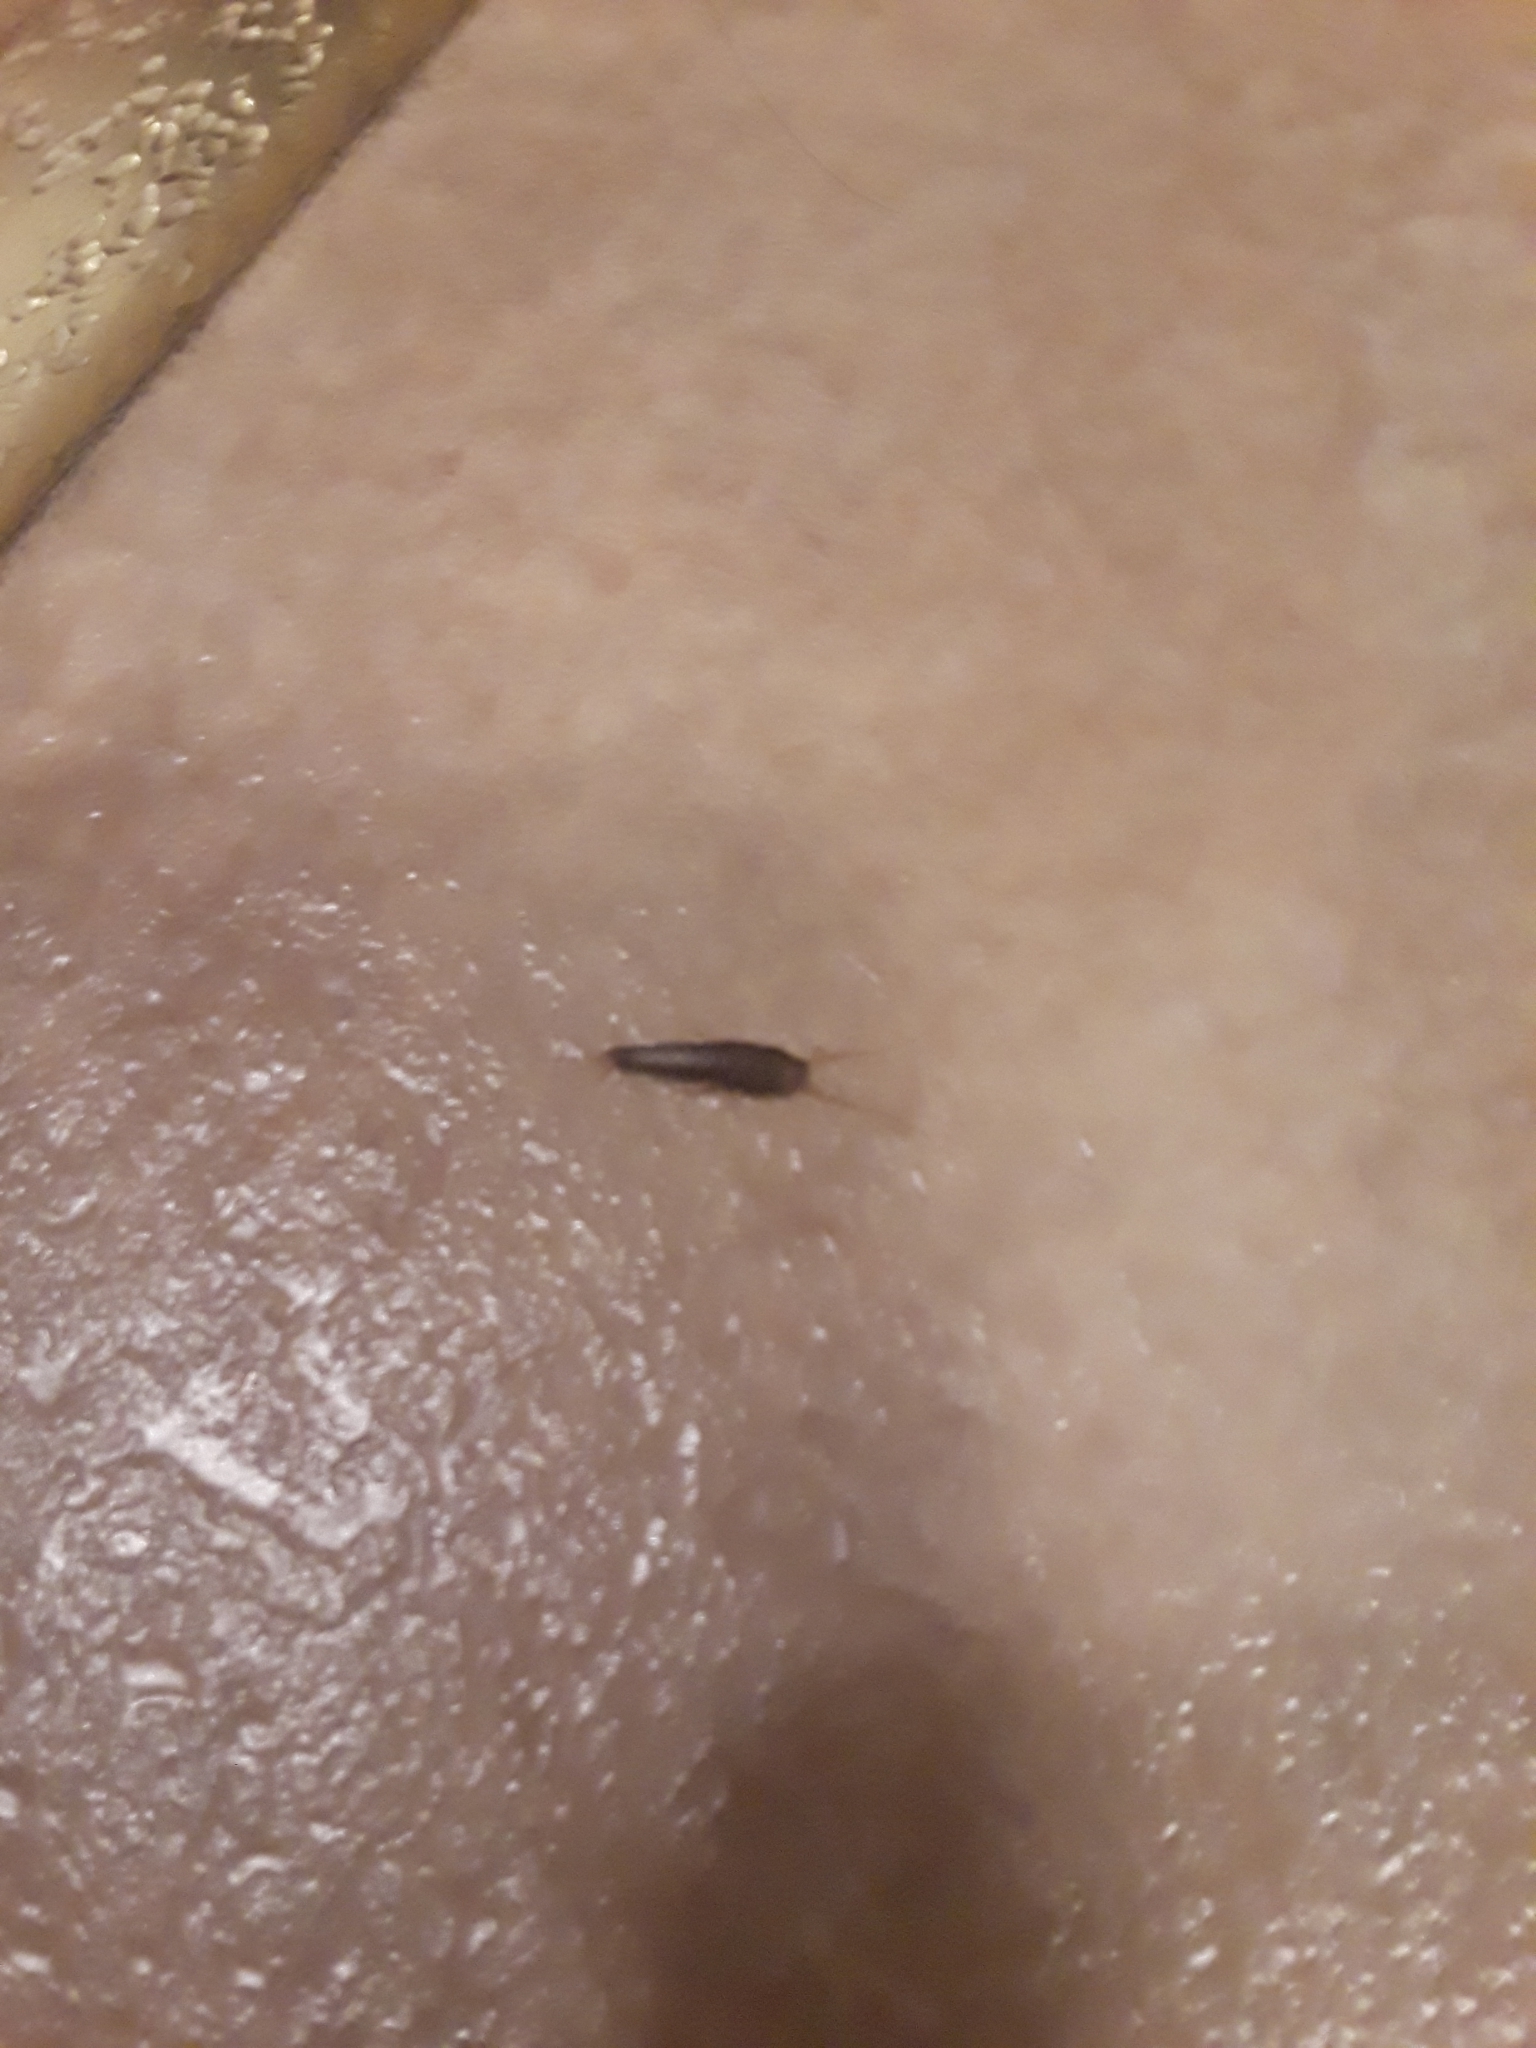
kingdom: Animalia
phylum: Arthropoda
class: Insecta
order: Zygentoma
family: Lepismatidae
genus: Lepisma
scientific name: Lepisma saccharinum
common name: Silverfish
